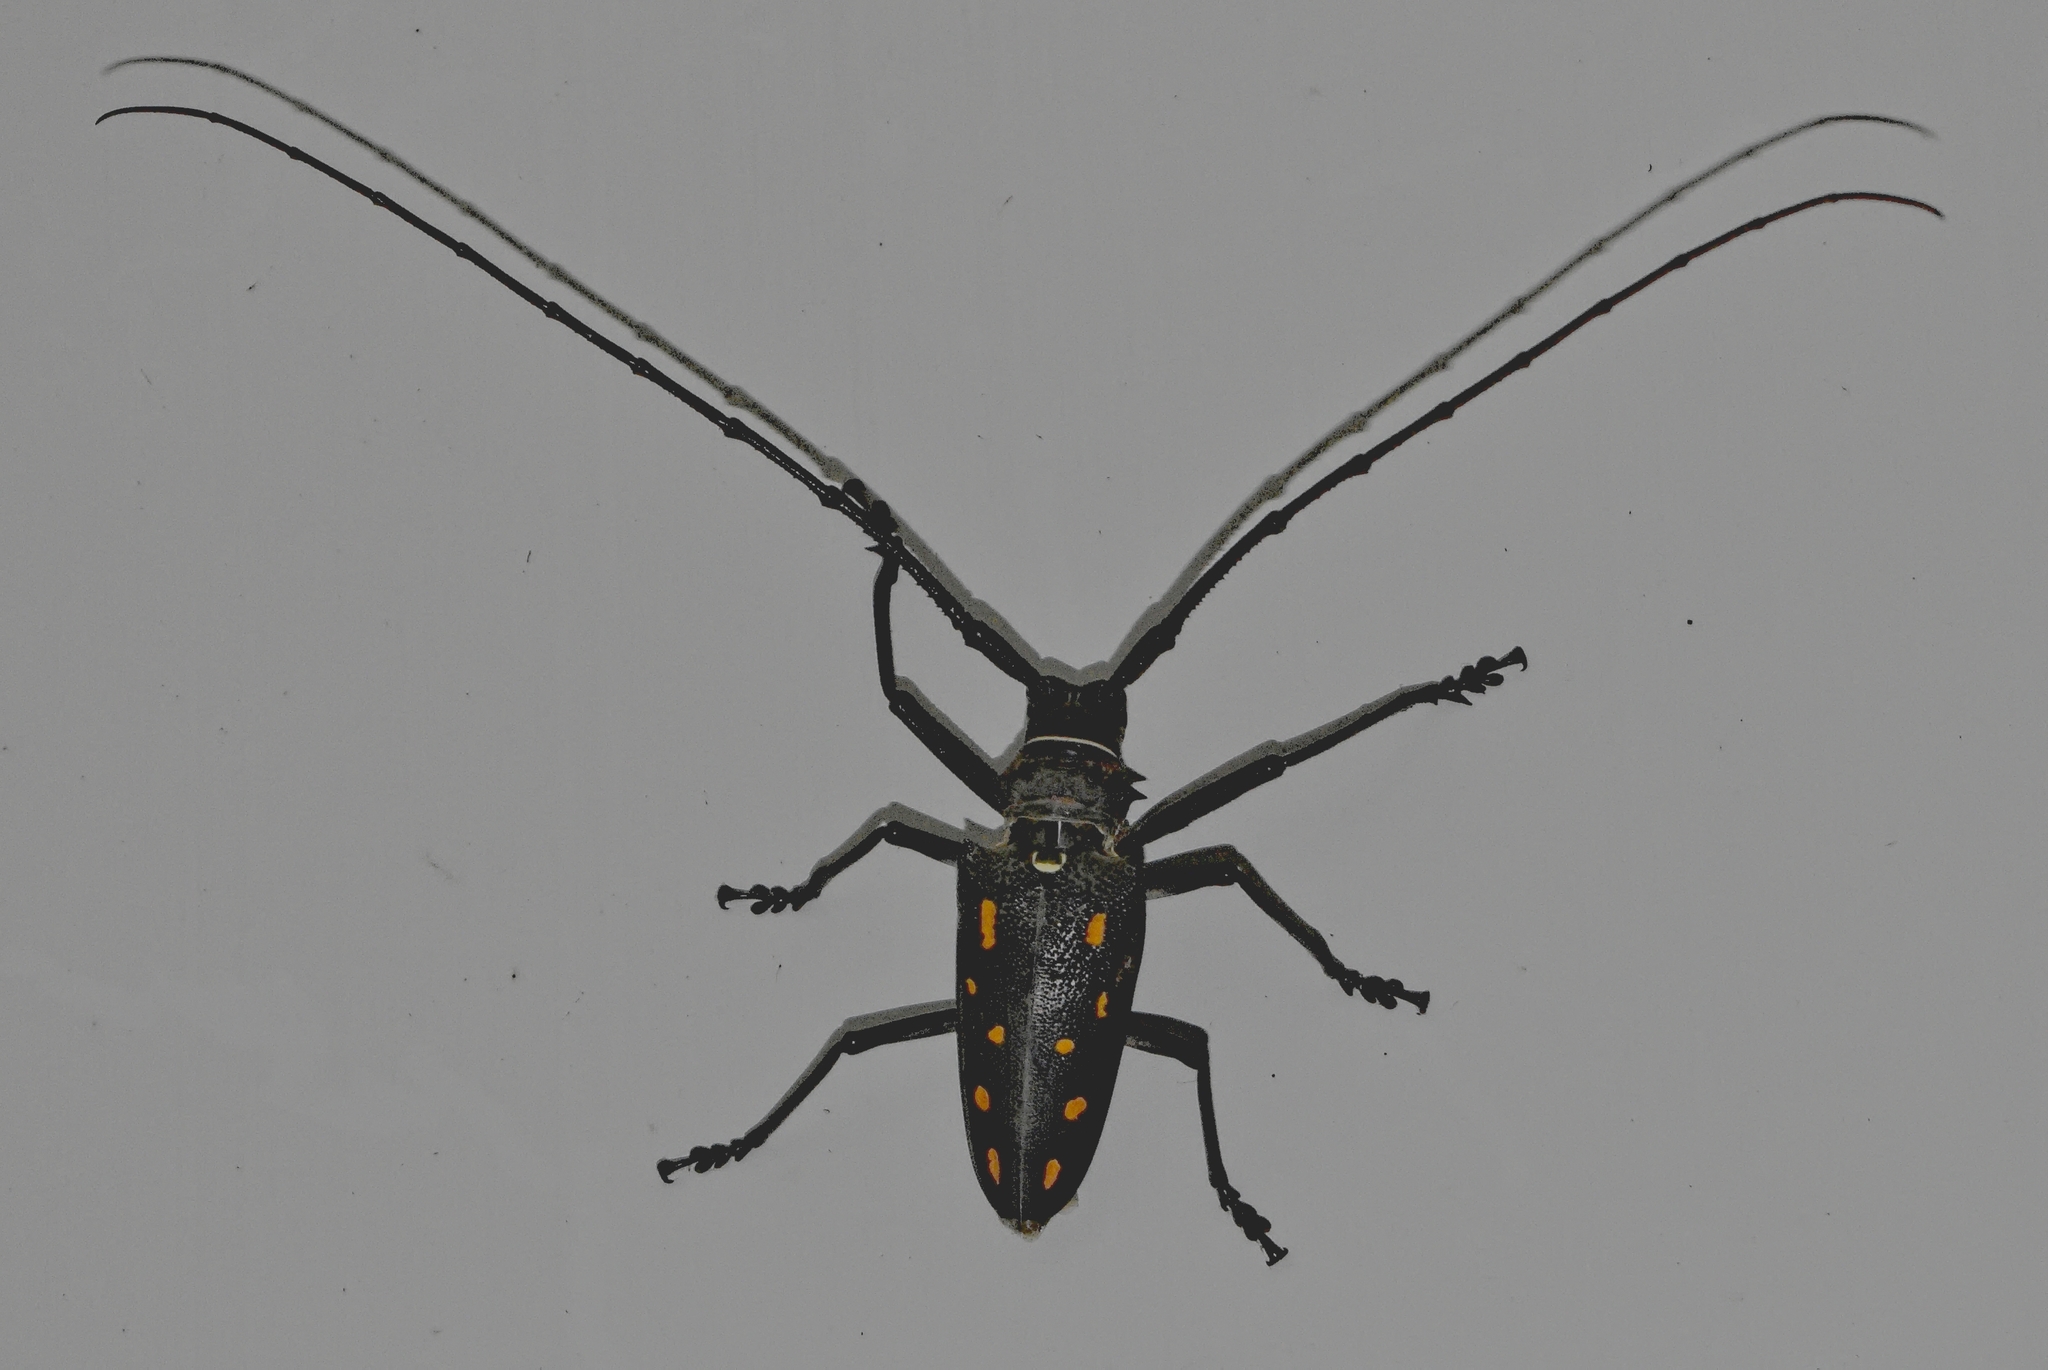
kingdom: Animalia
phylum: Arthropoda
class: Insecta
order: Coleoptera
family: Cerambycidae
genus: Batocera
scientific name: Batocera frenchi
